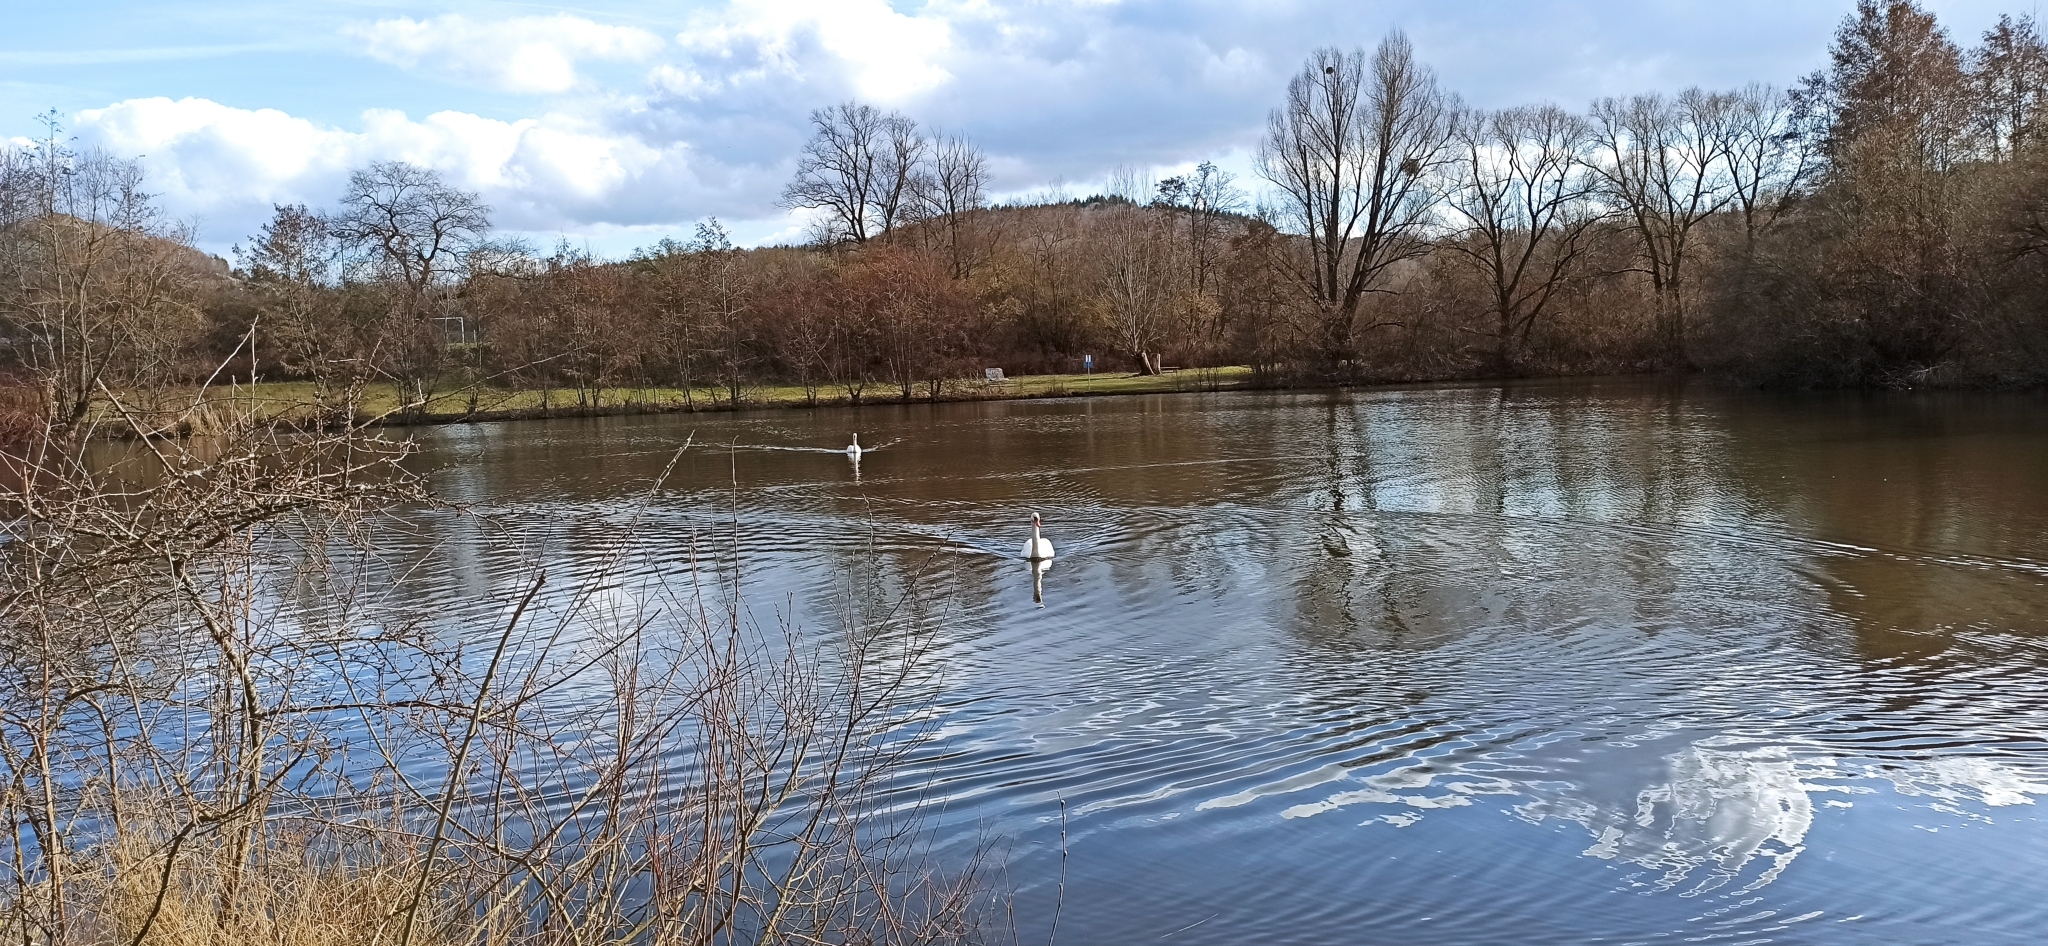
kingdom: Animalia
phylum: Chordata
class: Aves
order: Anseriformes
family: Anatidae
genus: Cygnus
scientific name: Cygnus olor
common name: Mute swan
